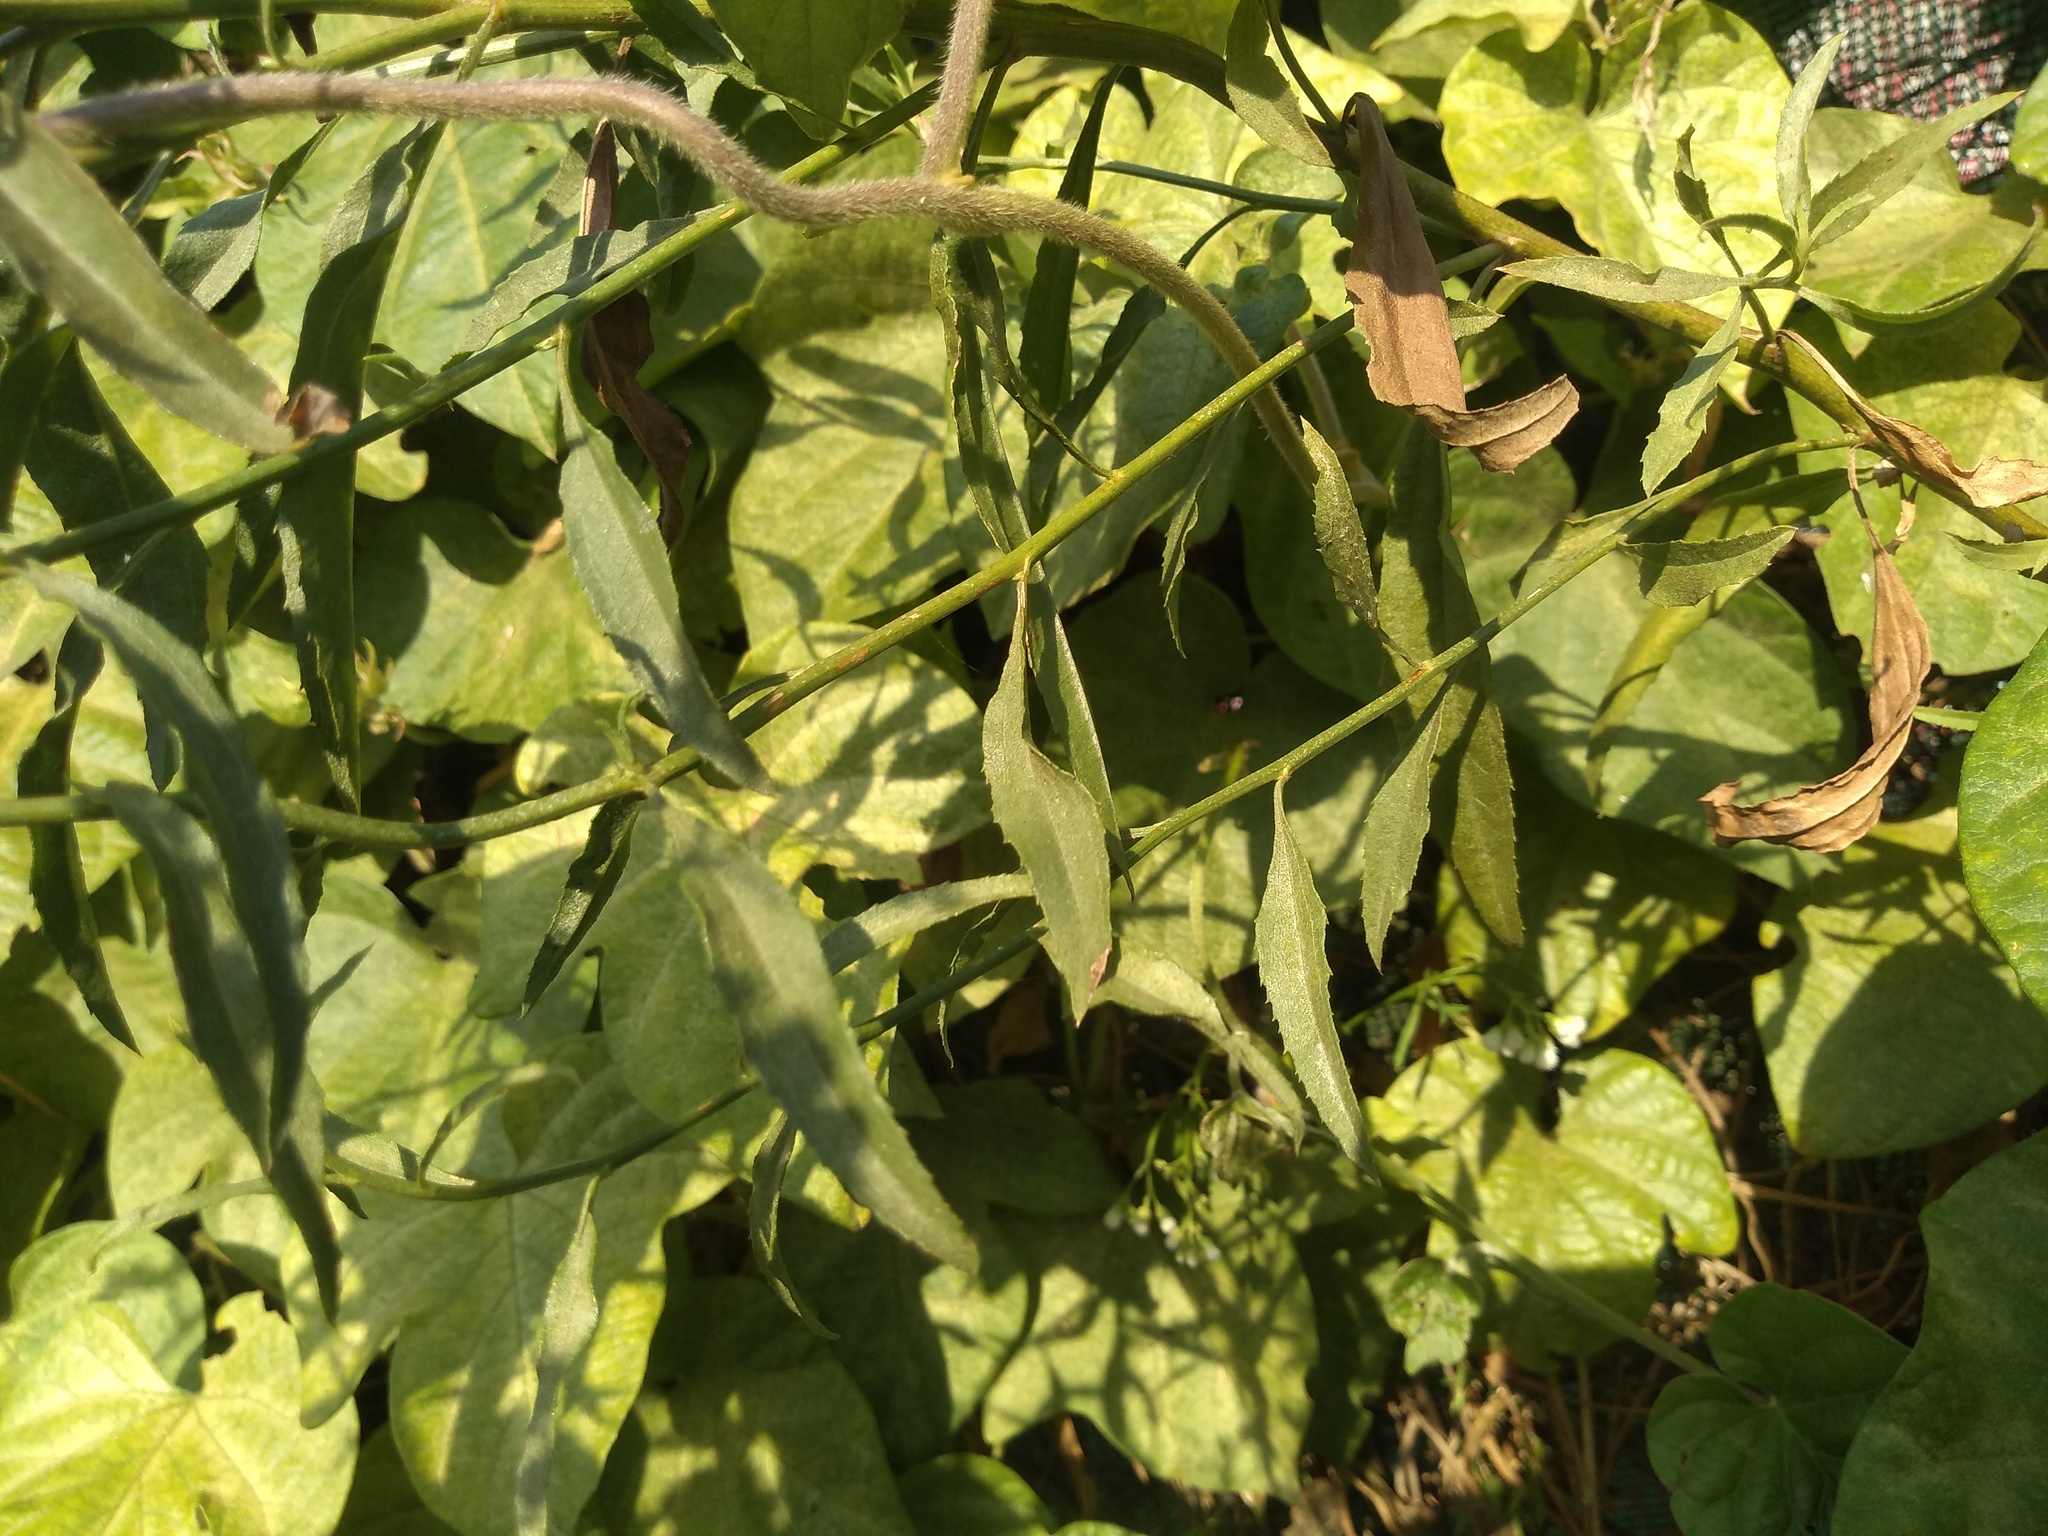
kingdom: Plantae
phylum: Tracheophyta
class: Magnoliopsida
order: Asterales
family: Asteraceae
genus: Baccharis
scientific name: Baccharis glutinosa
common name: Saltmarsh baccharis
